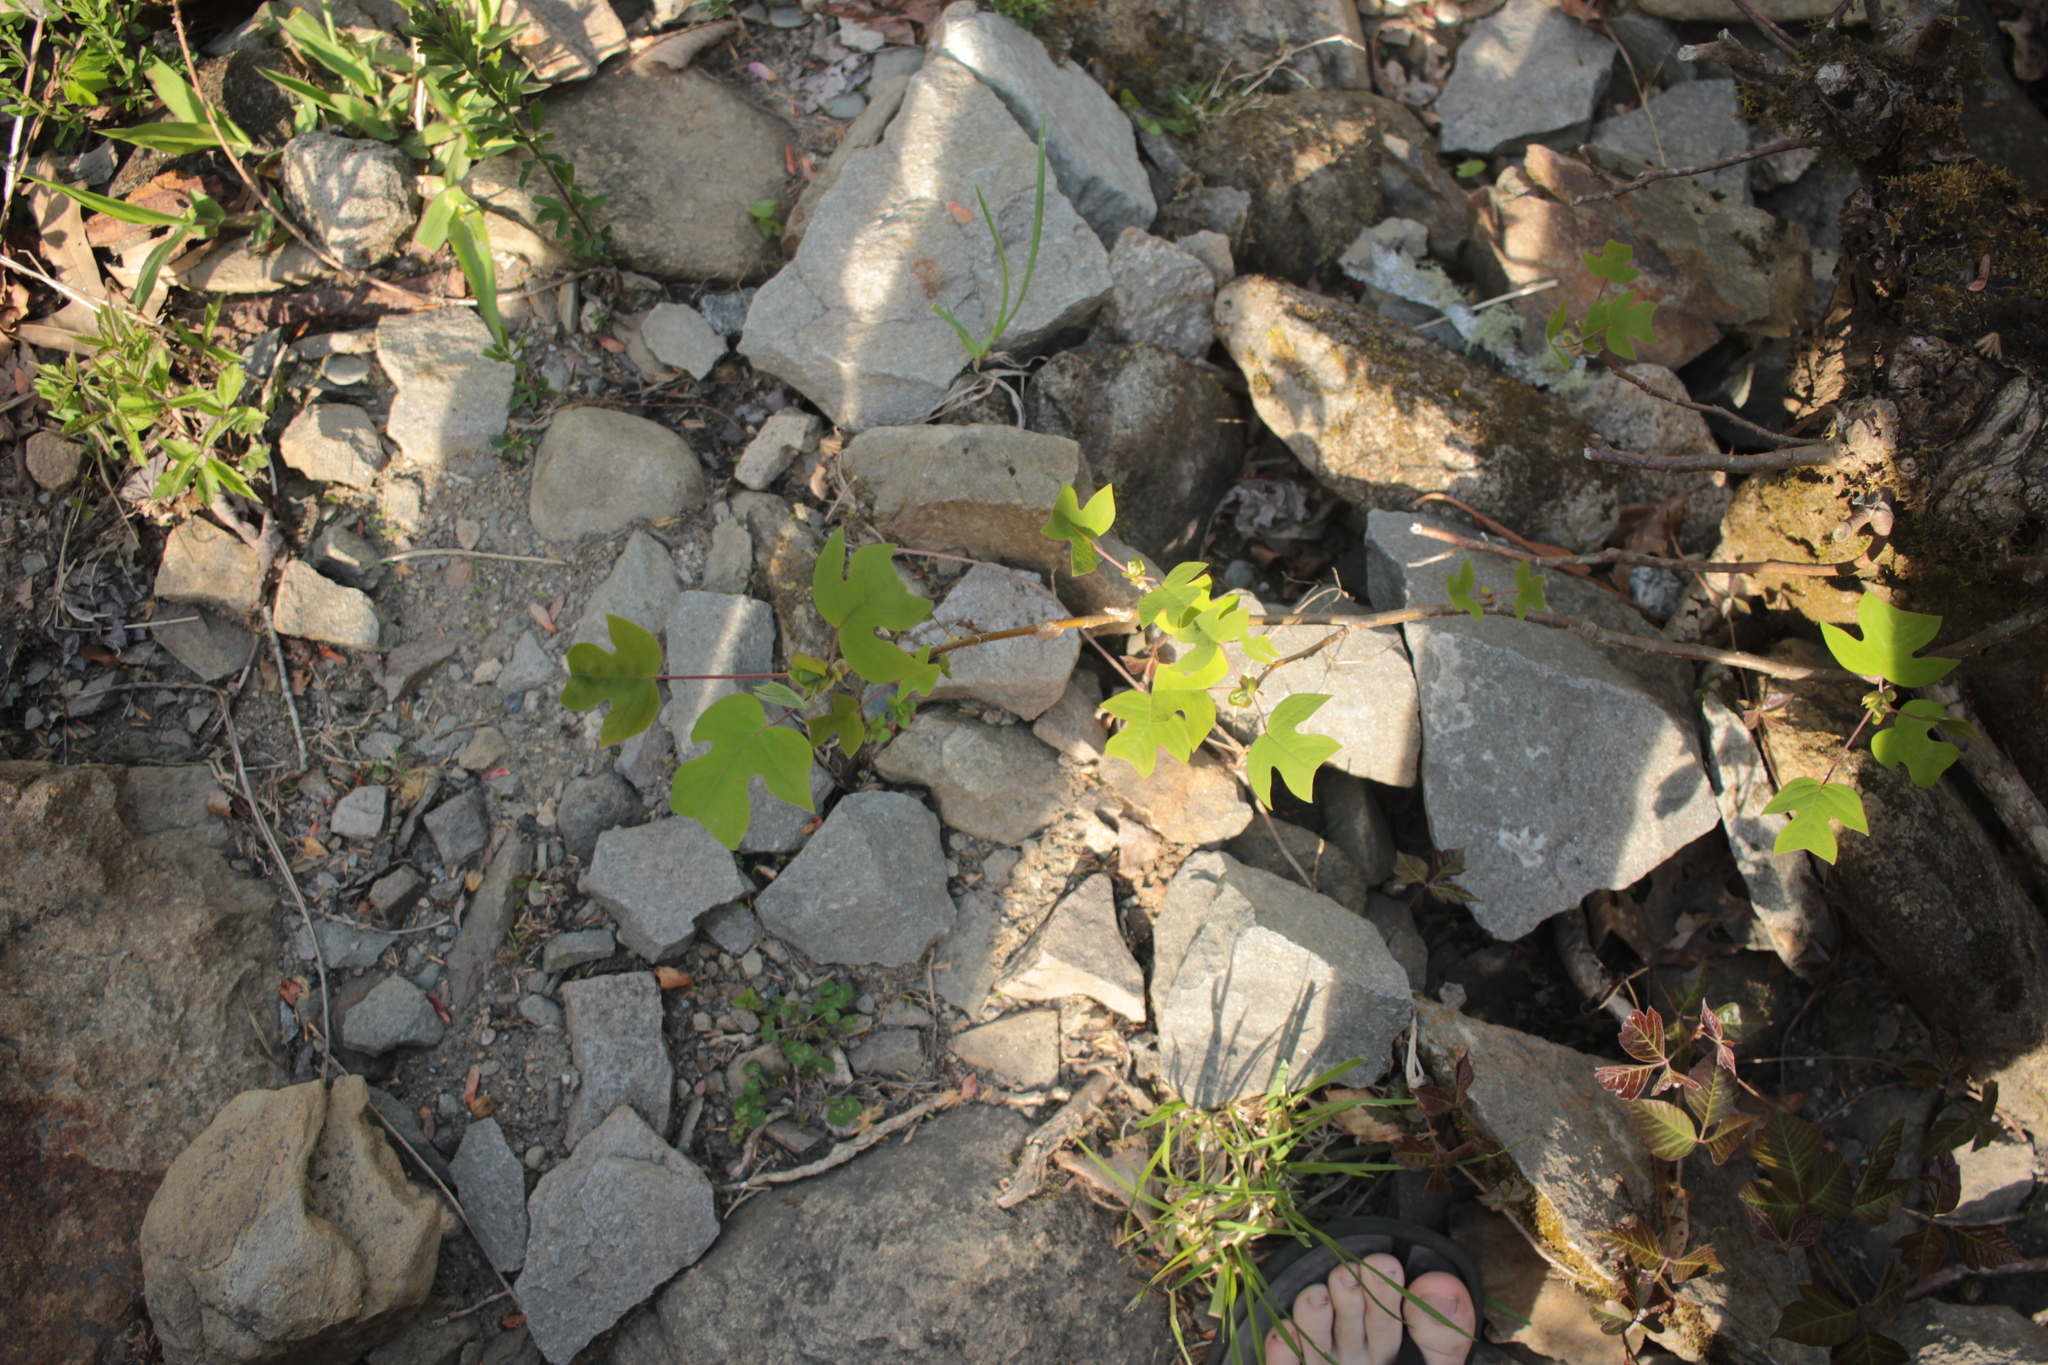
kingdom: Plantae
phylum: Tracheophyta
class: Magnoliopsida
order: Magnoliales
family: Magnoliaceae
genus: Liriodendron
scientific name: Liriodendron tulipifera
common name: Tulip tree
